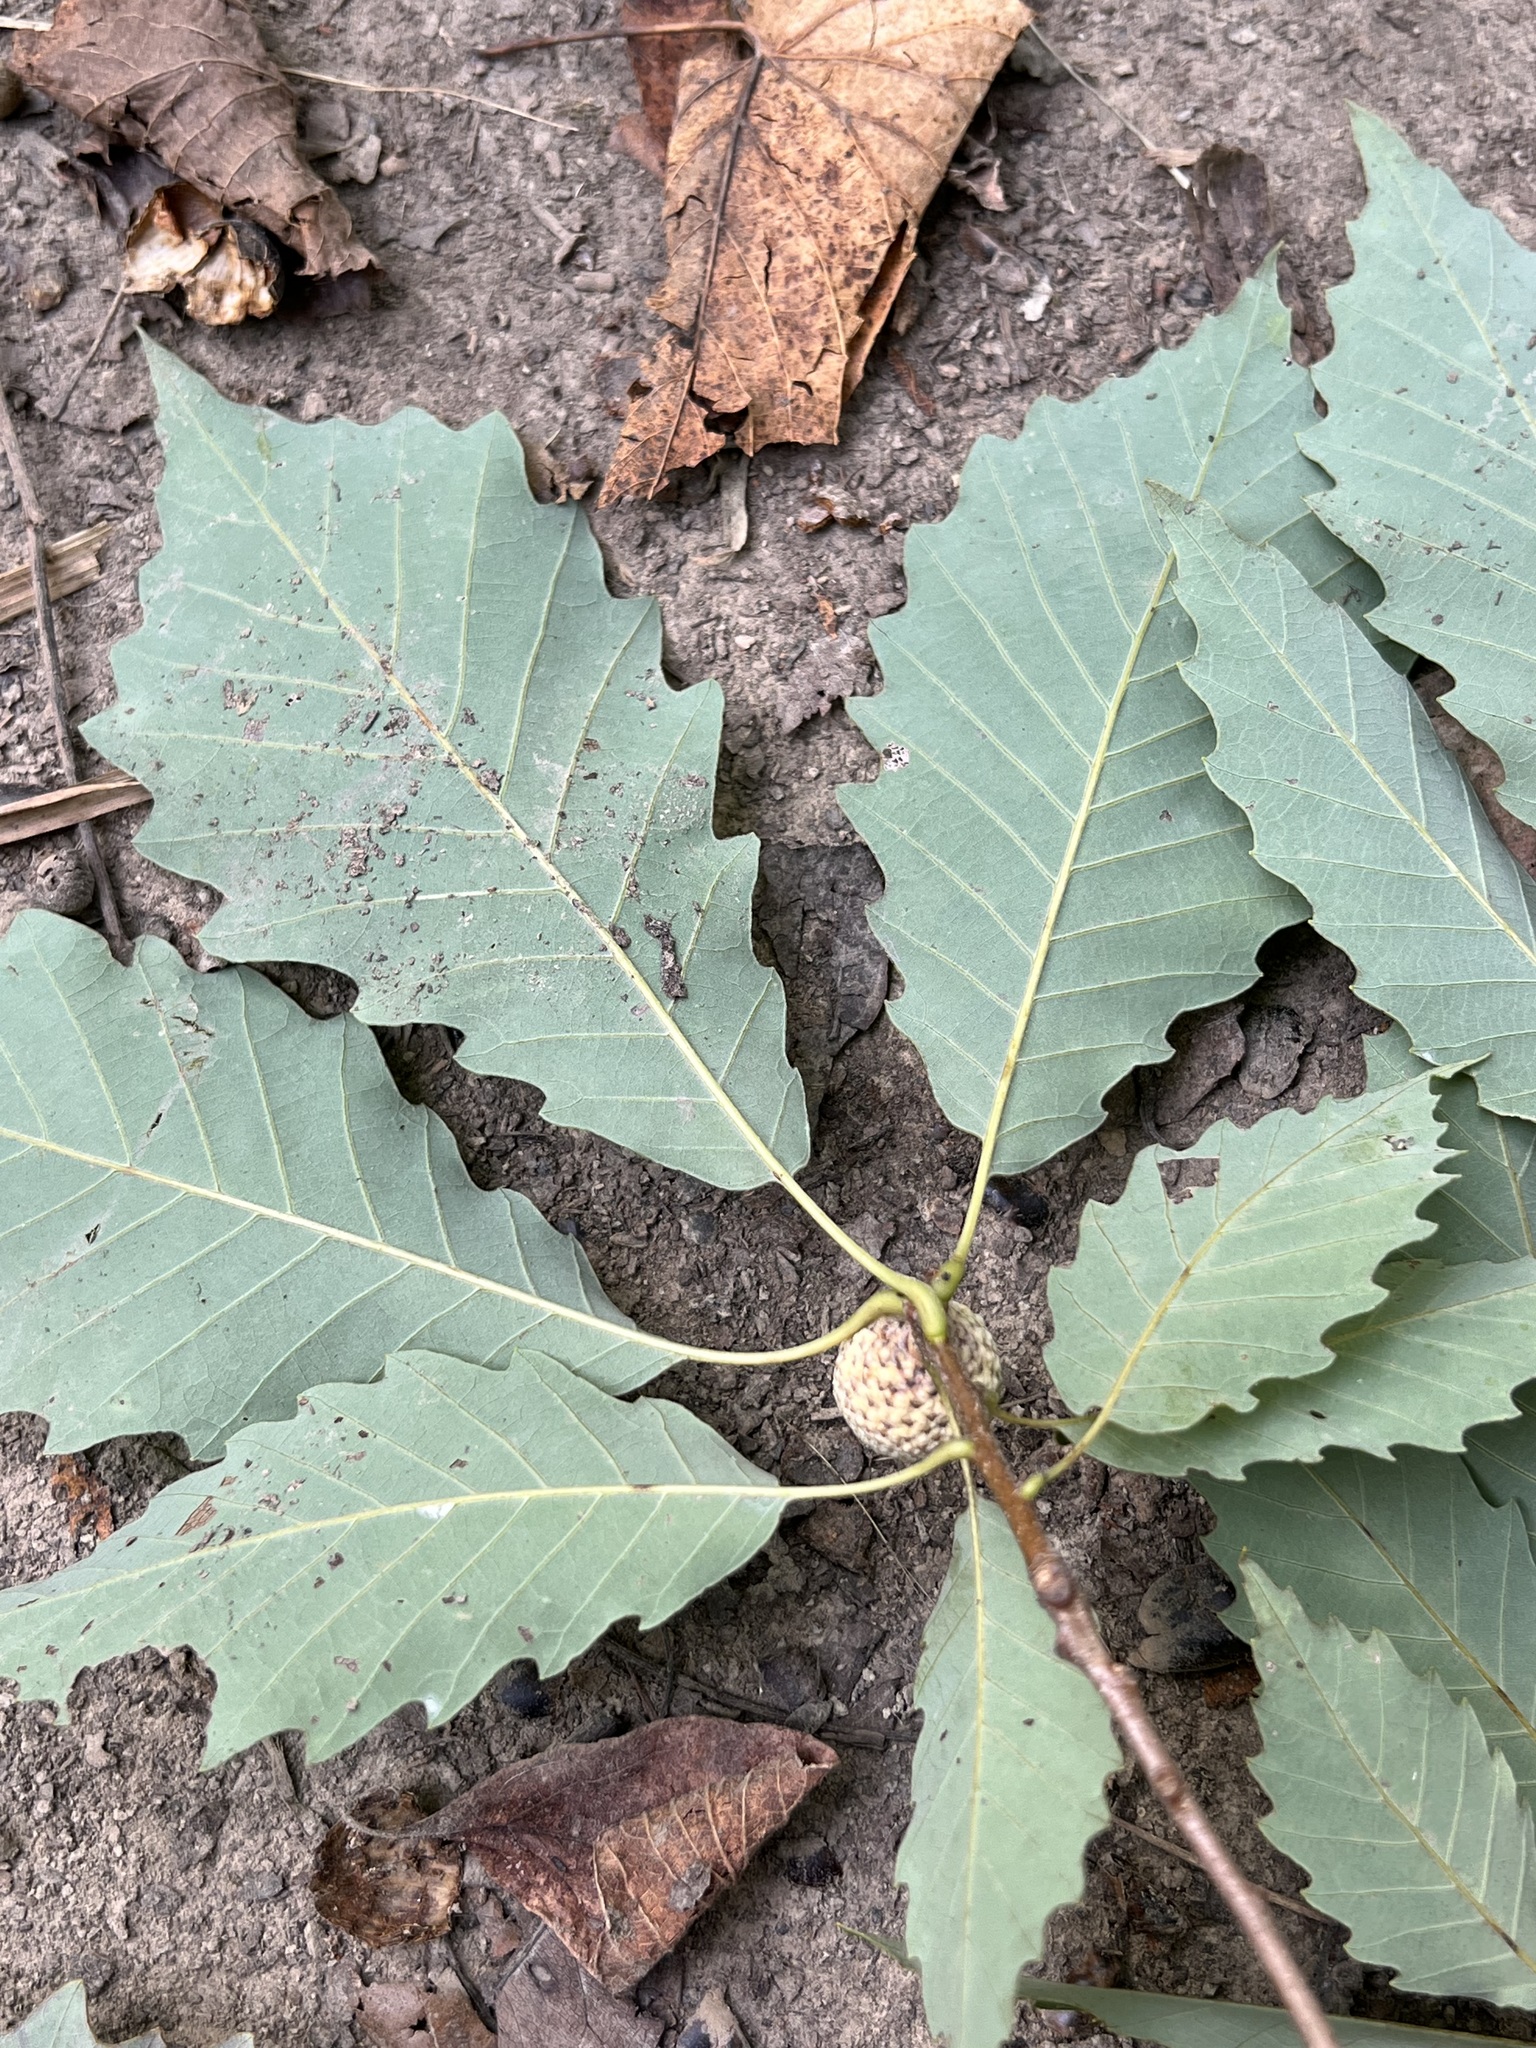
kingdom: Plantae
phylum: Tracheophyta
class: Magnoliopsida
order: Fagales
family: Fagaceae
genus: Quercus
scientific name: Quercus muehlenbergii
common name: Chinkapin oak
